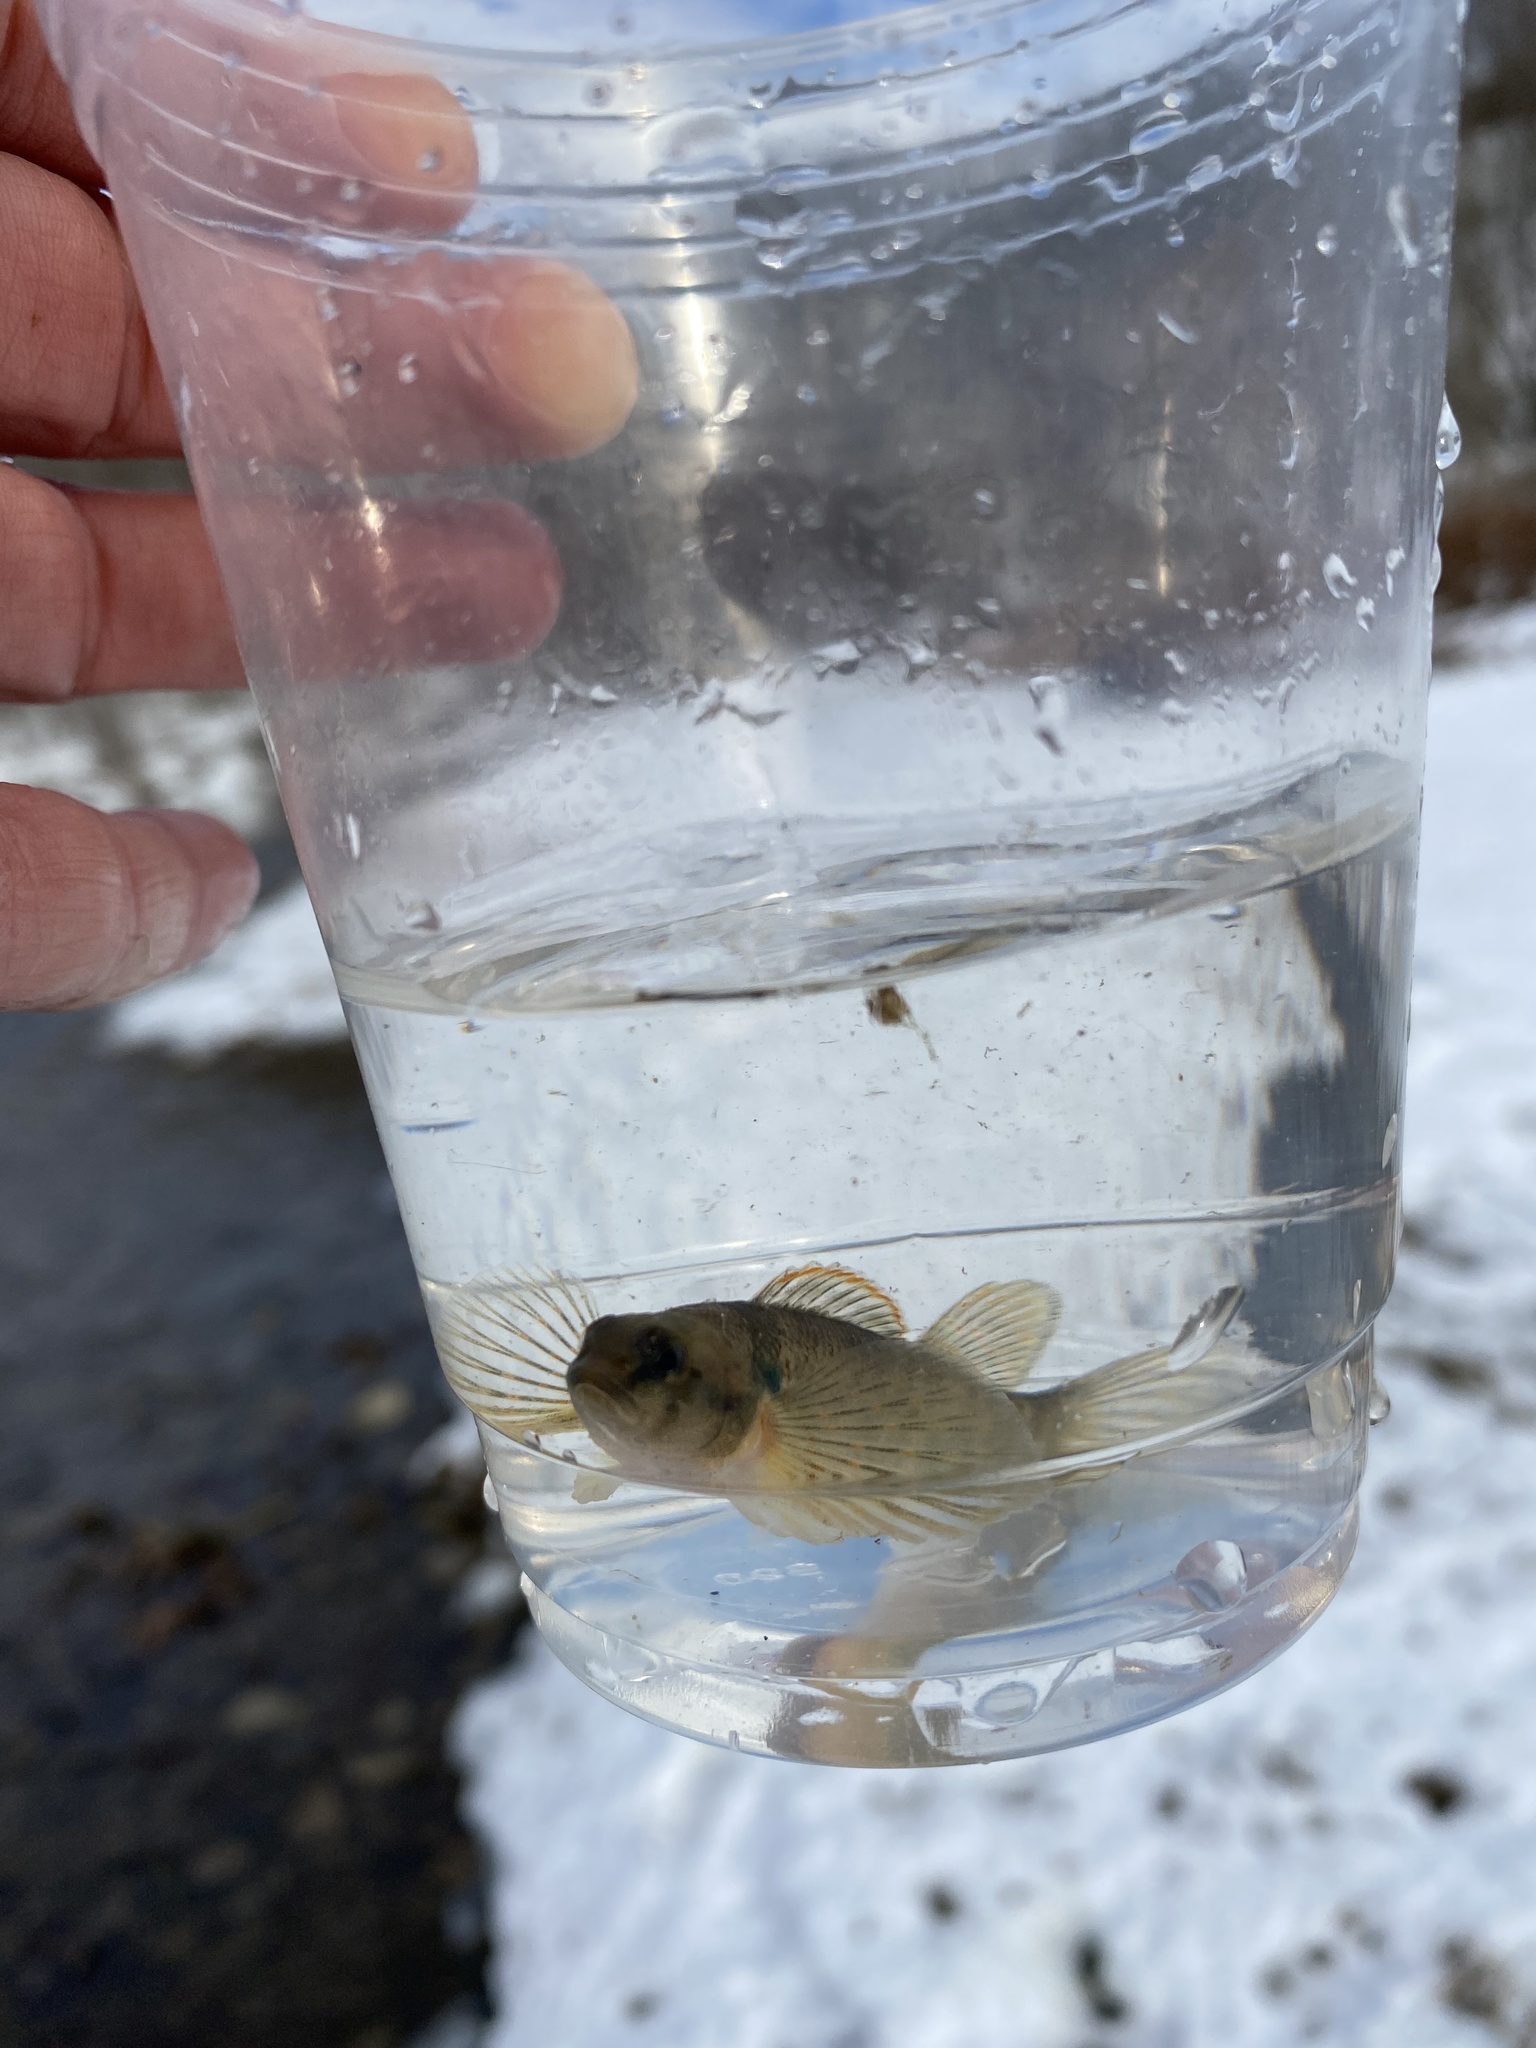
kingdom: Animalia
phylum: Chordata
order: Perciformes
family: Percidae
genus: Etheostoma
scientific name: Etheostoma variatum
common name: Variegate darter
